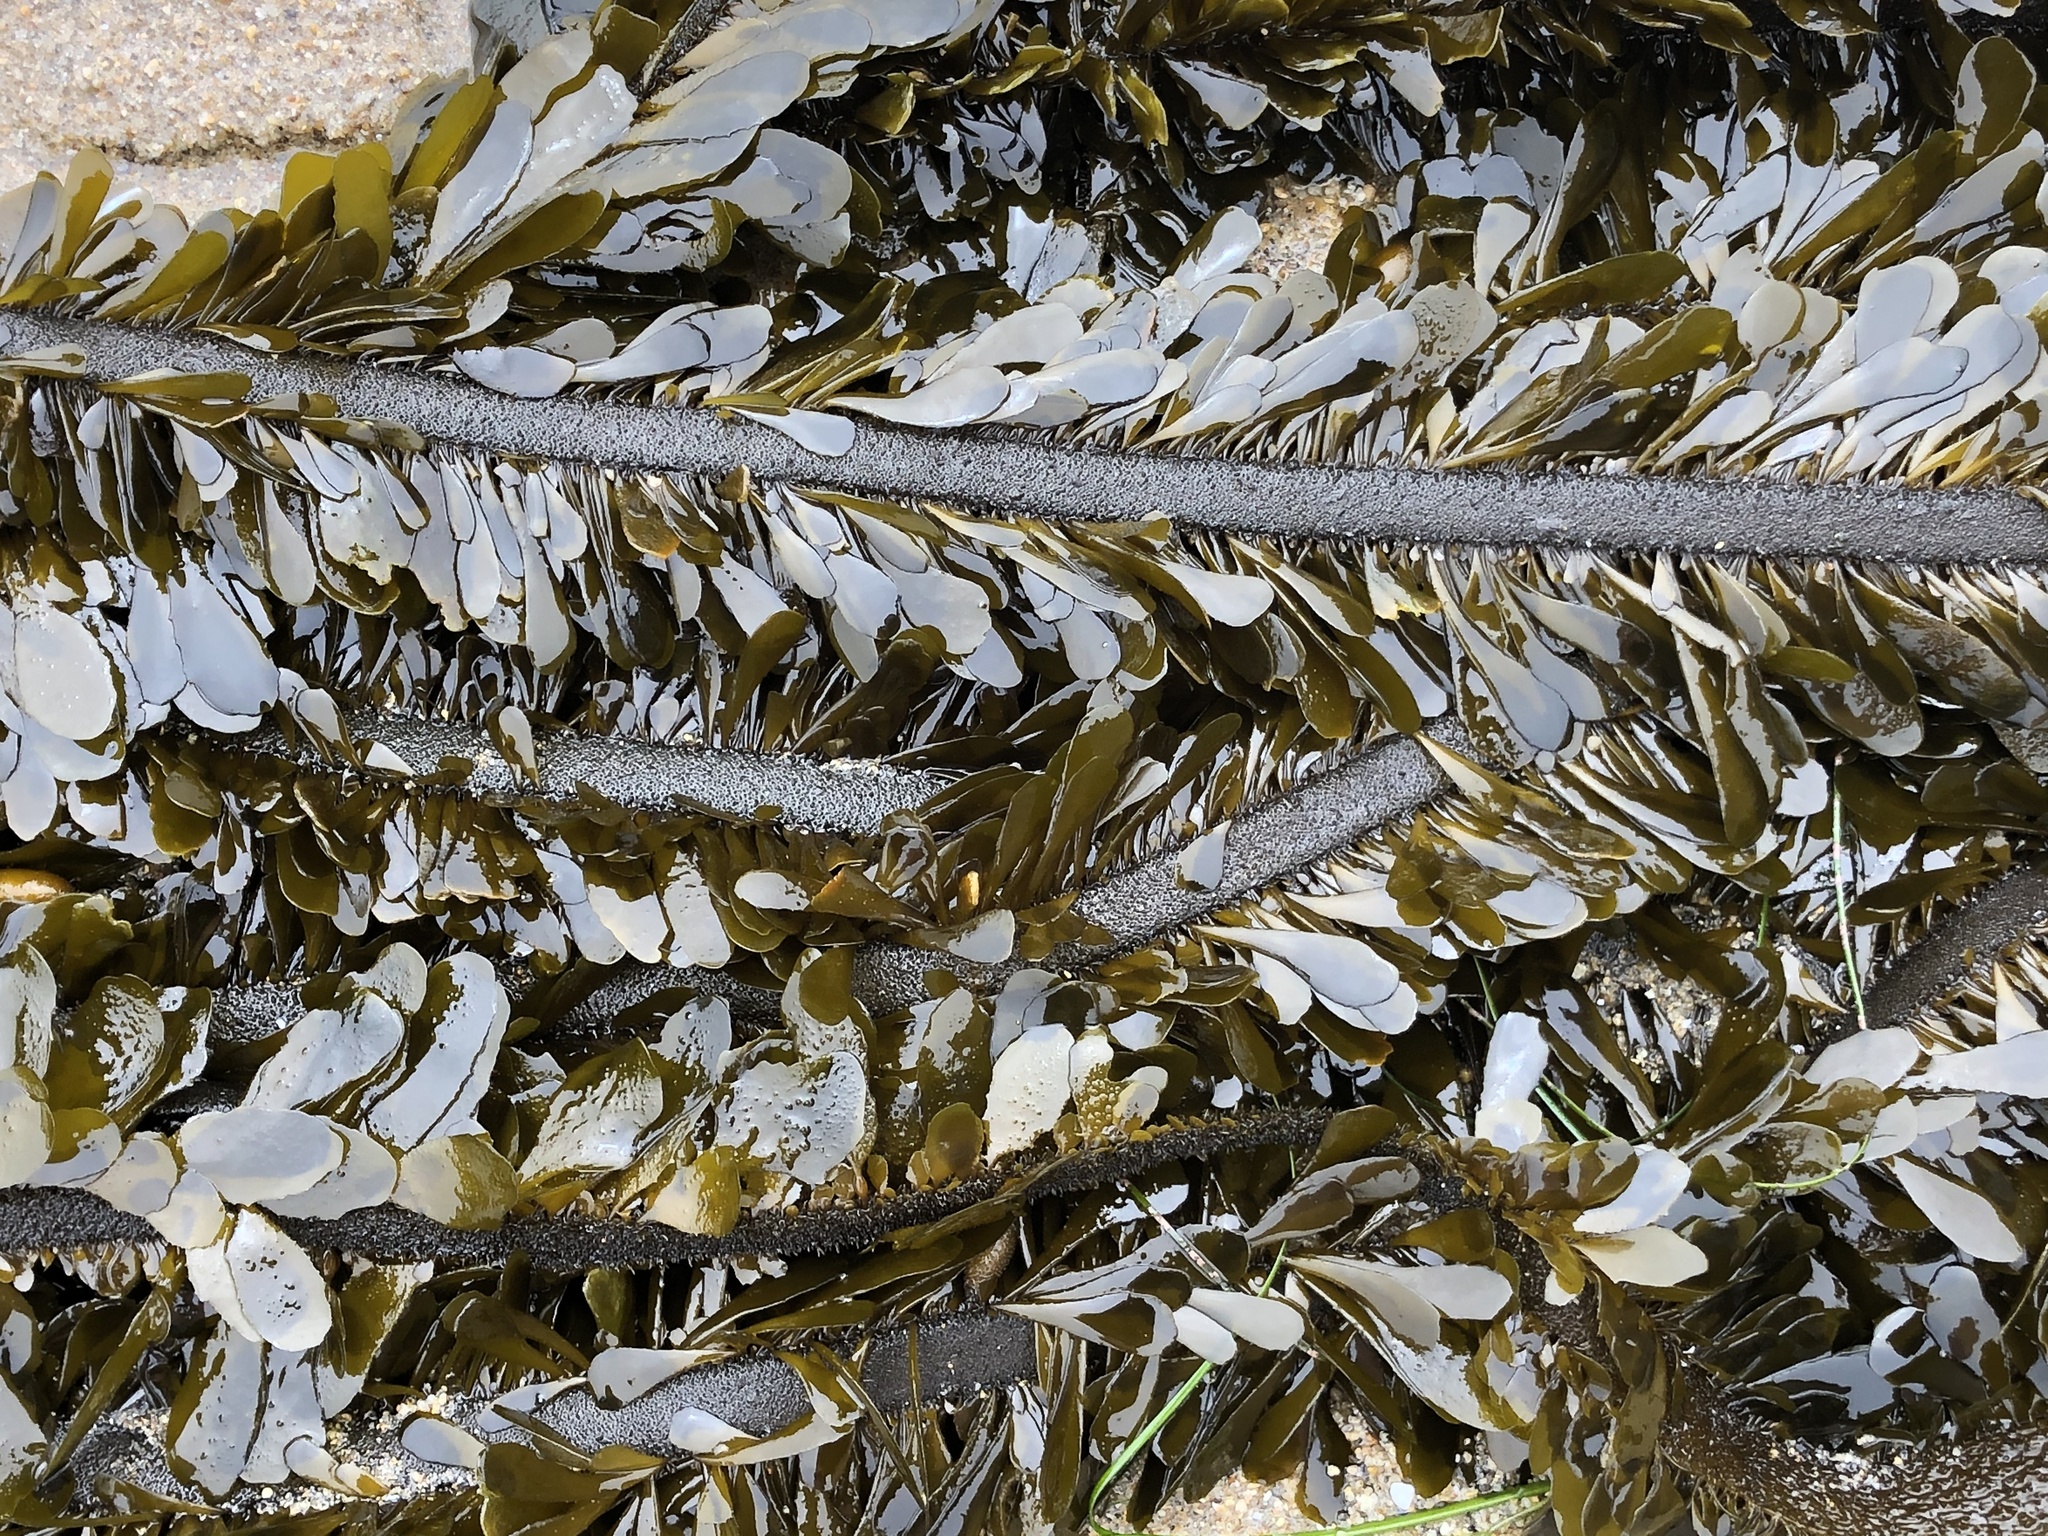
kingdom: Chromista
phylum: Ochrophyta
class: Phaeophyceae
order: Laminariales
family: Lessoniaceae
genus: Egregia
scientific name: Egregia menziesii
